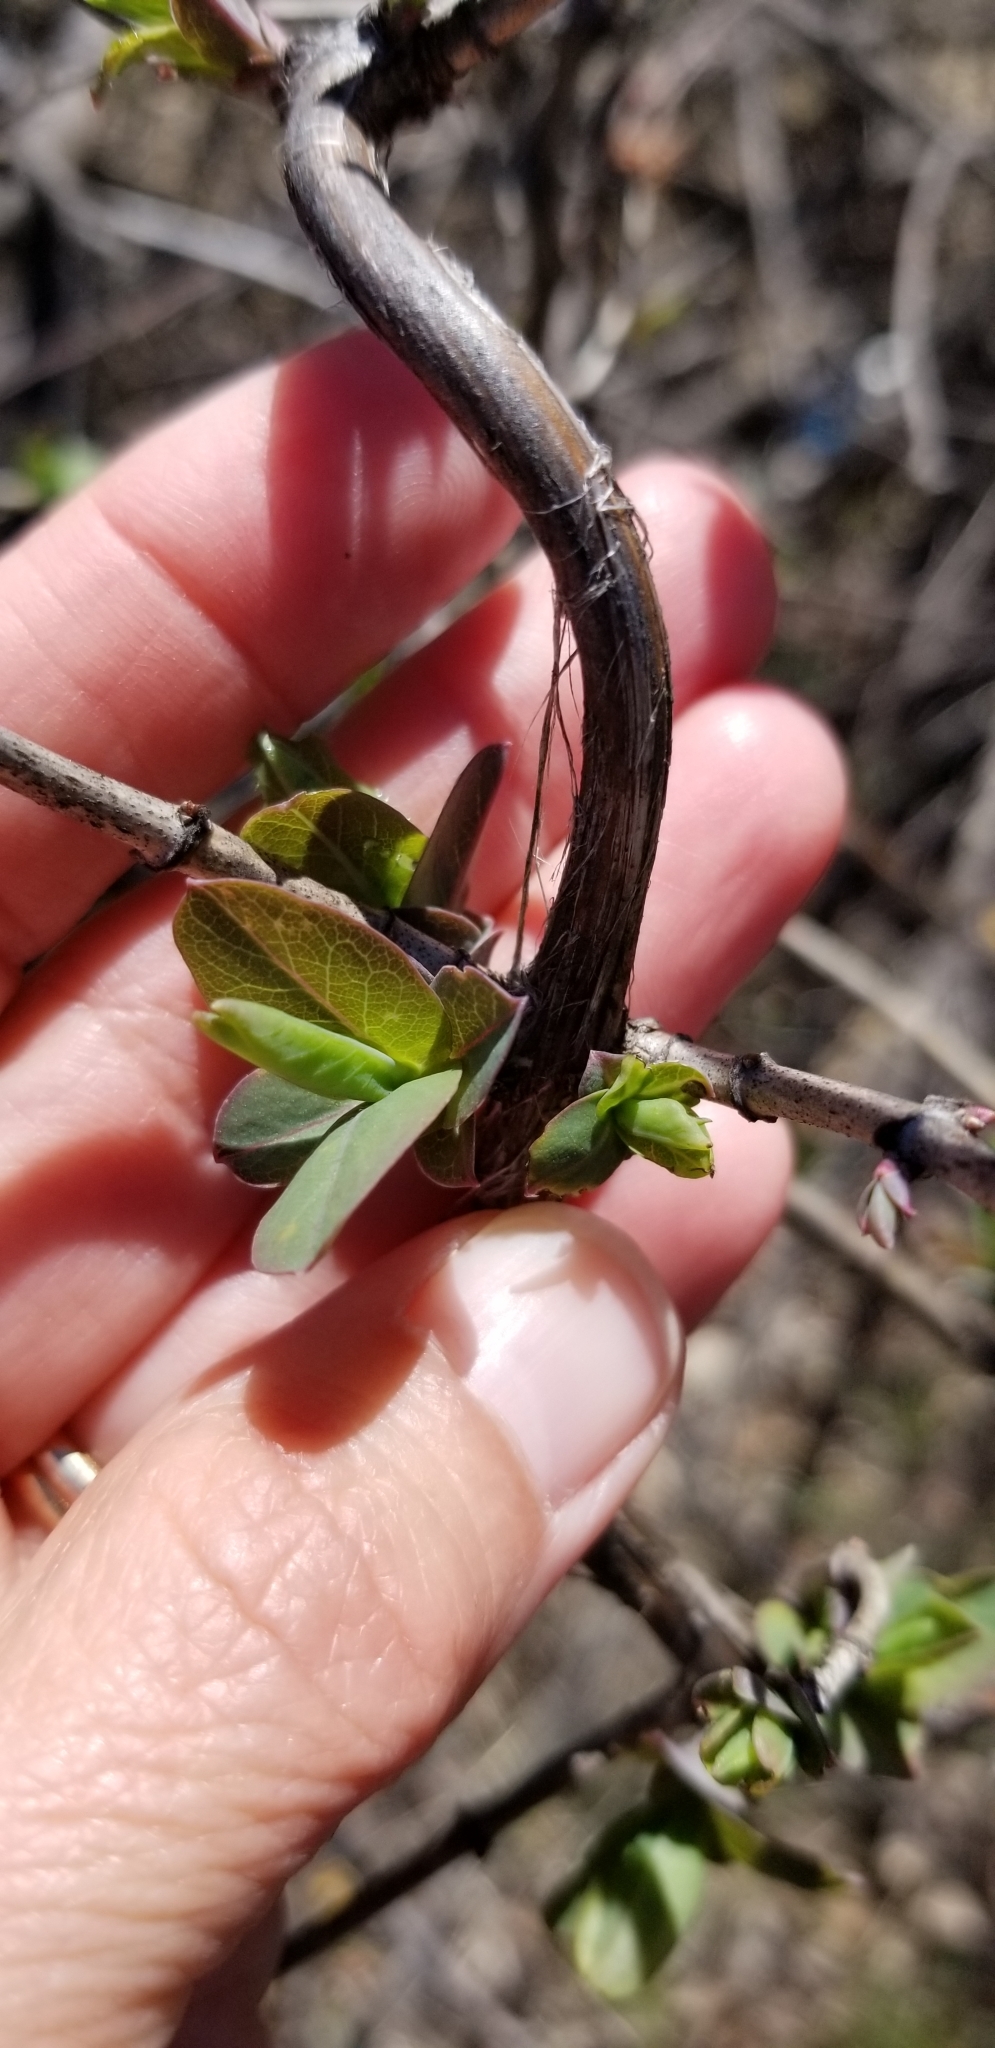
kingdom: Plantae
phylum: Tracheophyta
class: Magnoliopsida
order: Dipsacales
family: Caprifoliaceae
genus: Lonicera
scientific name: Lonicera albiflora
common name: White honeysuckle
